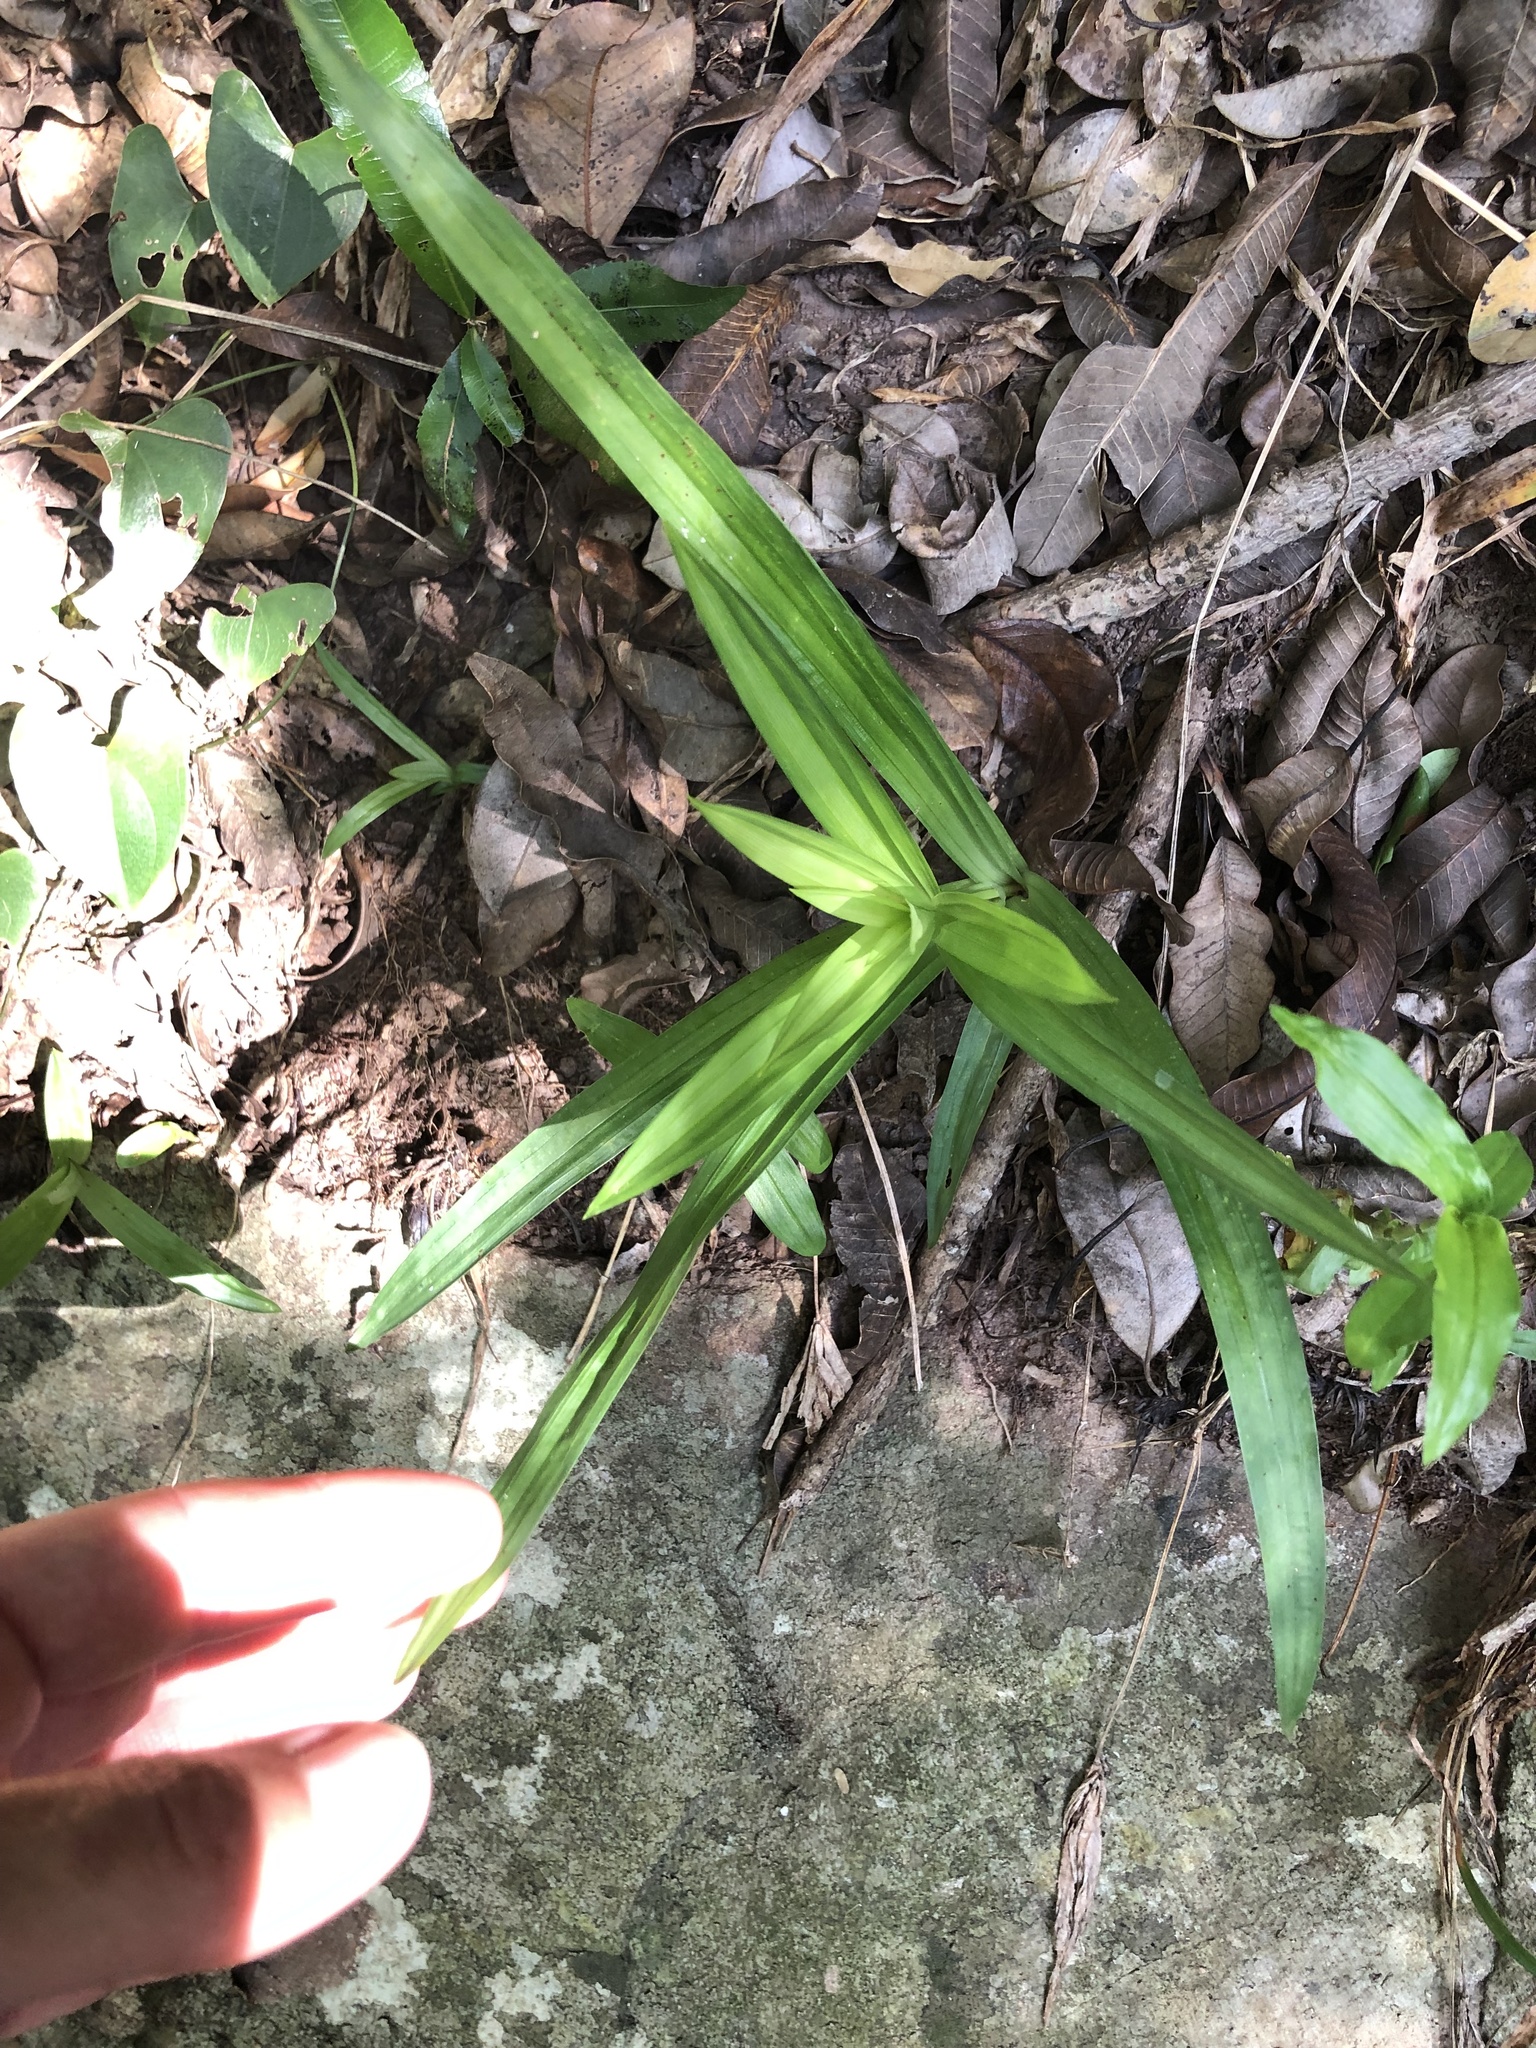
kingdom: Plantae
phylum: Tracheophyta
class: Liliopsida
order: Poales
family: Cyperaceae
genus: Cyperus
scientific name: Cyperus albostriatus
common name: Dwarf umbrella-grass
